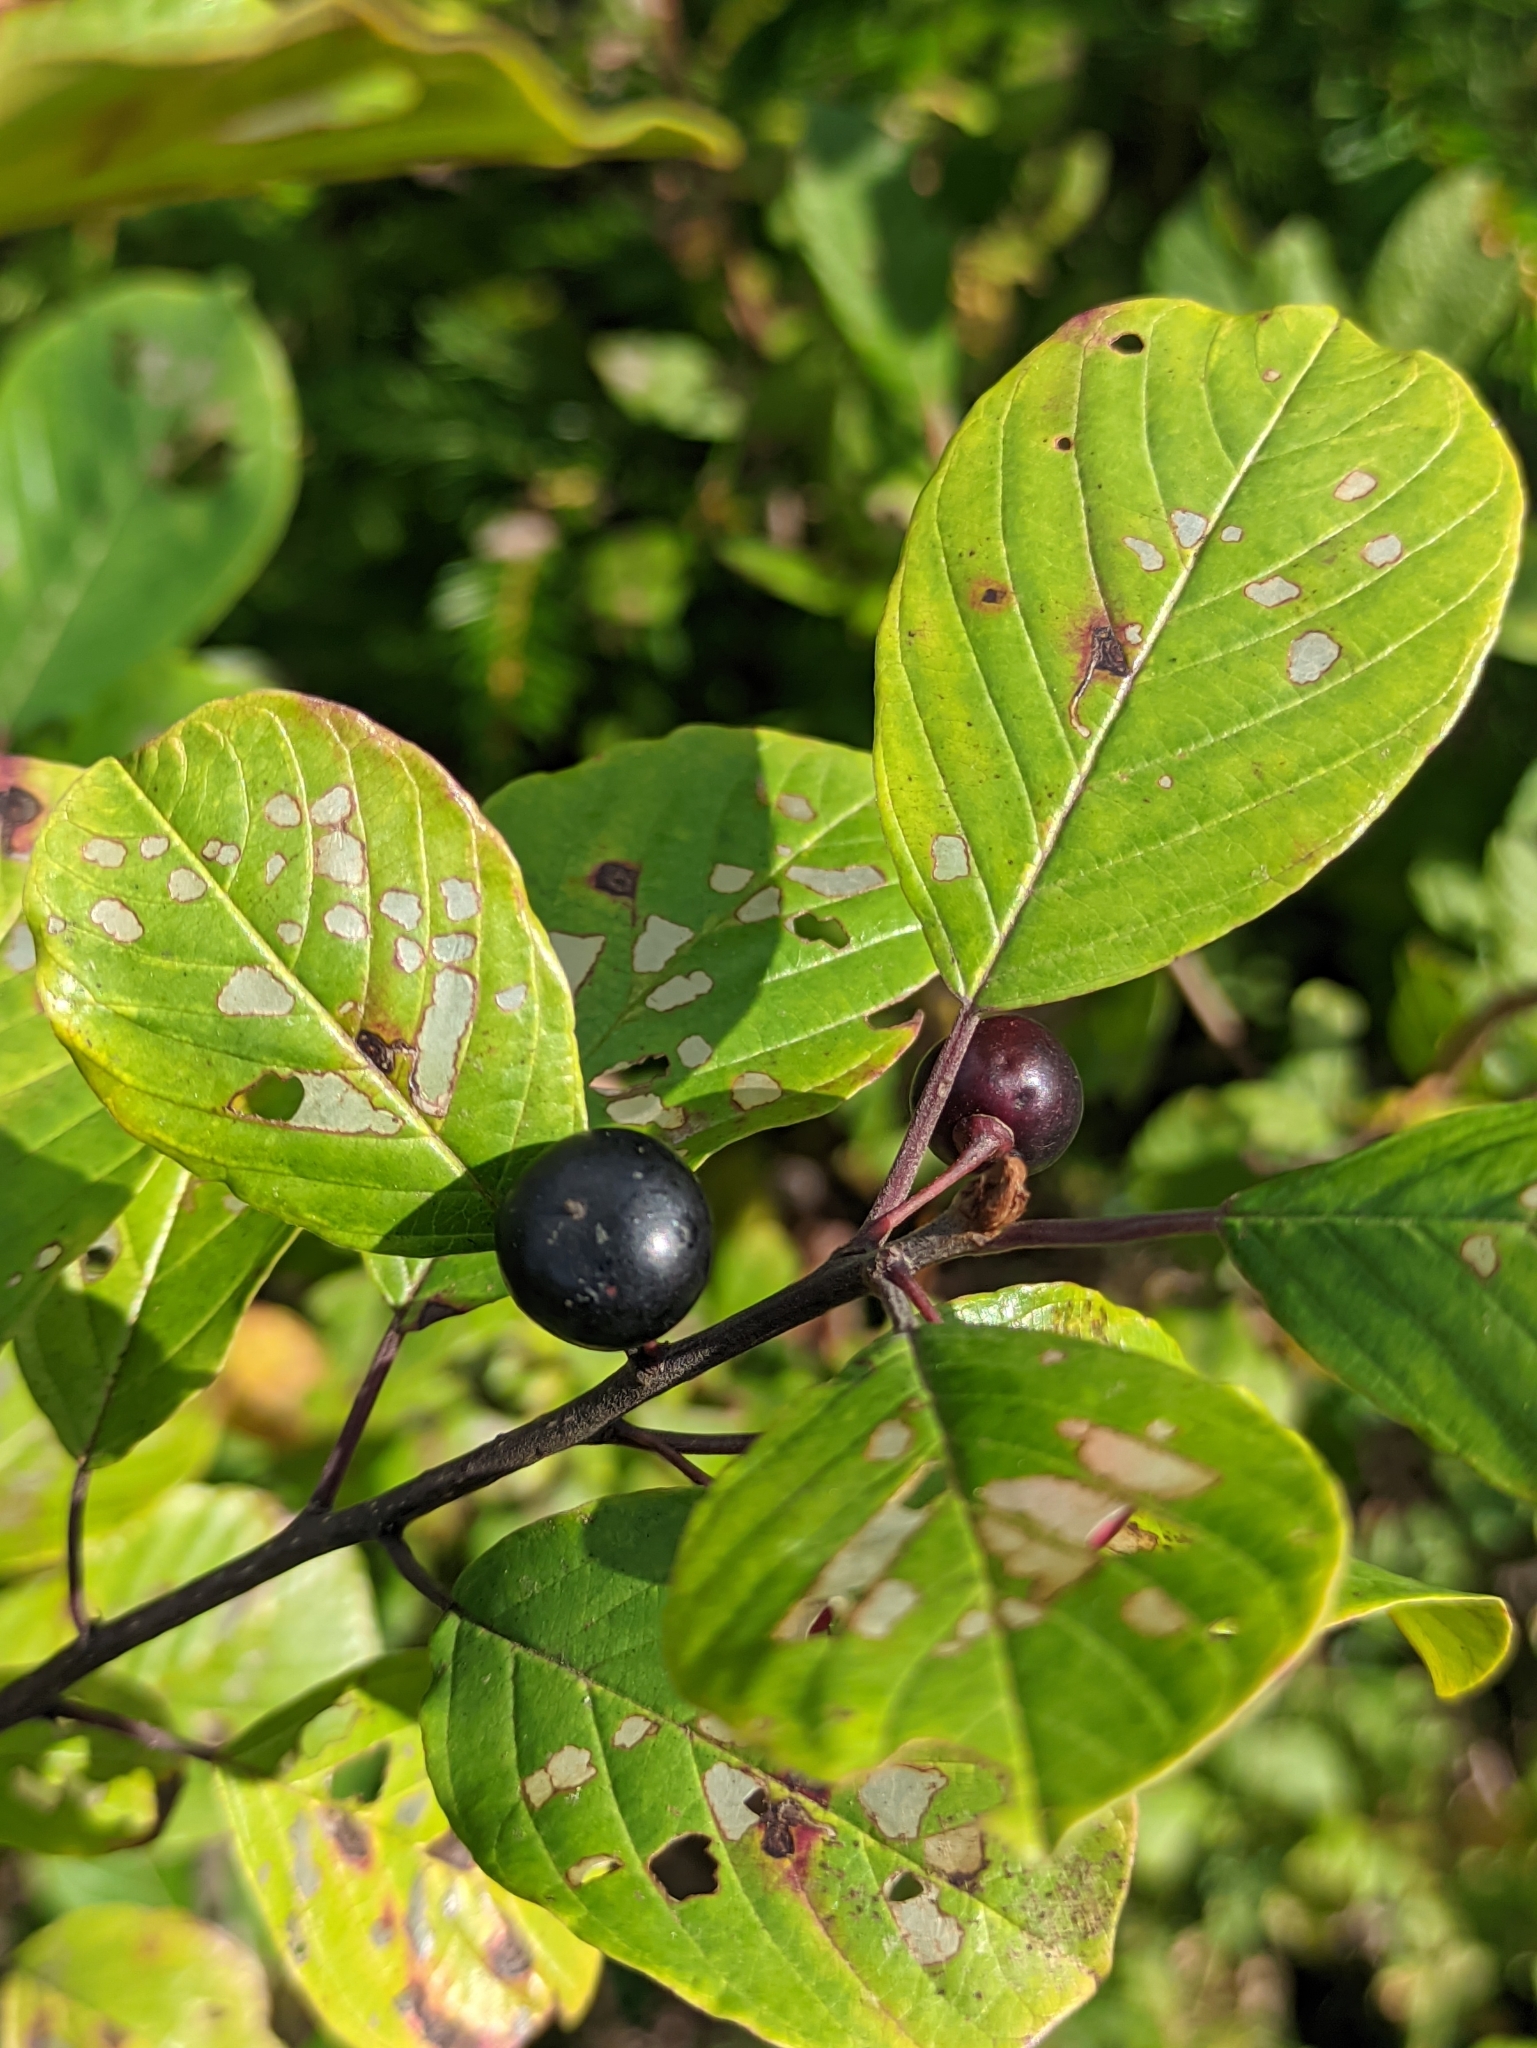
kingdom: Plantae
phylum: Tracheophyta
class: Magnoliopsida
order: Rosales
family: Rhamnaceae
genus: Frangula
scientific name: Frangula alnus
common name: Alder buckthorn
